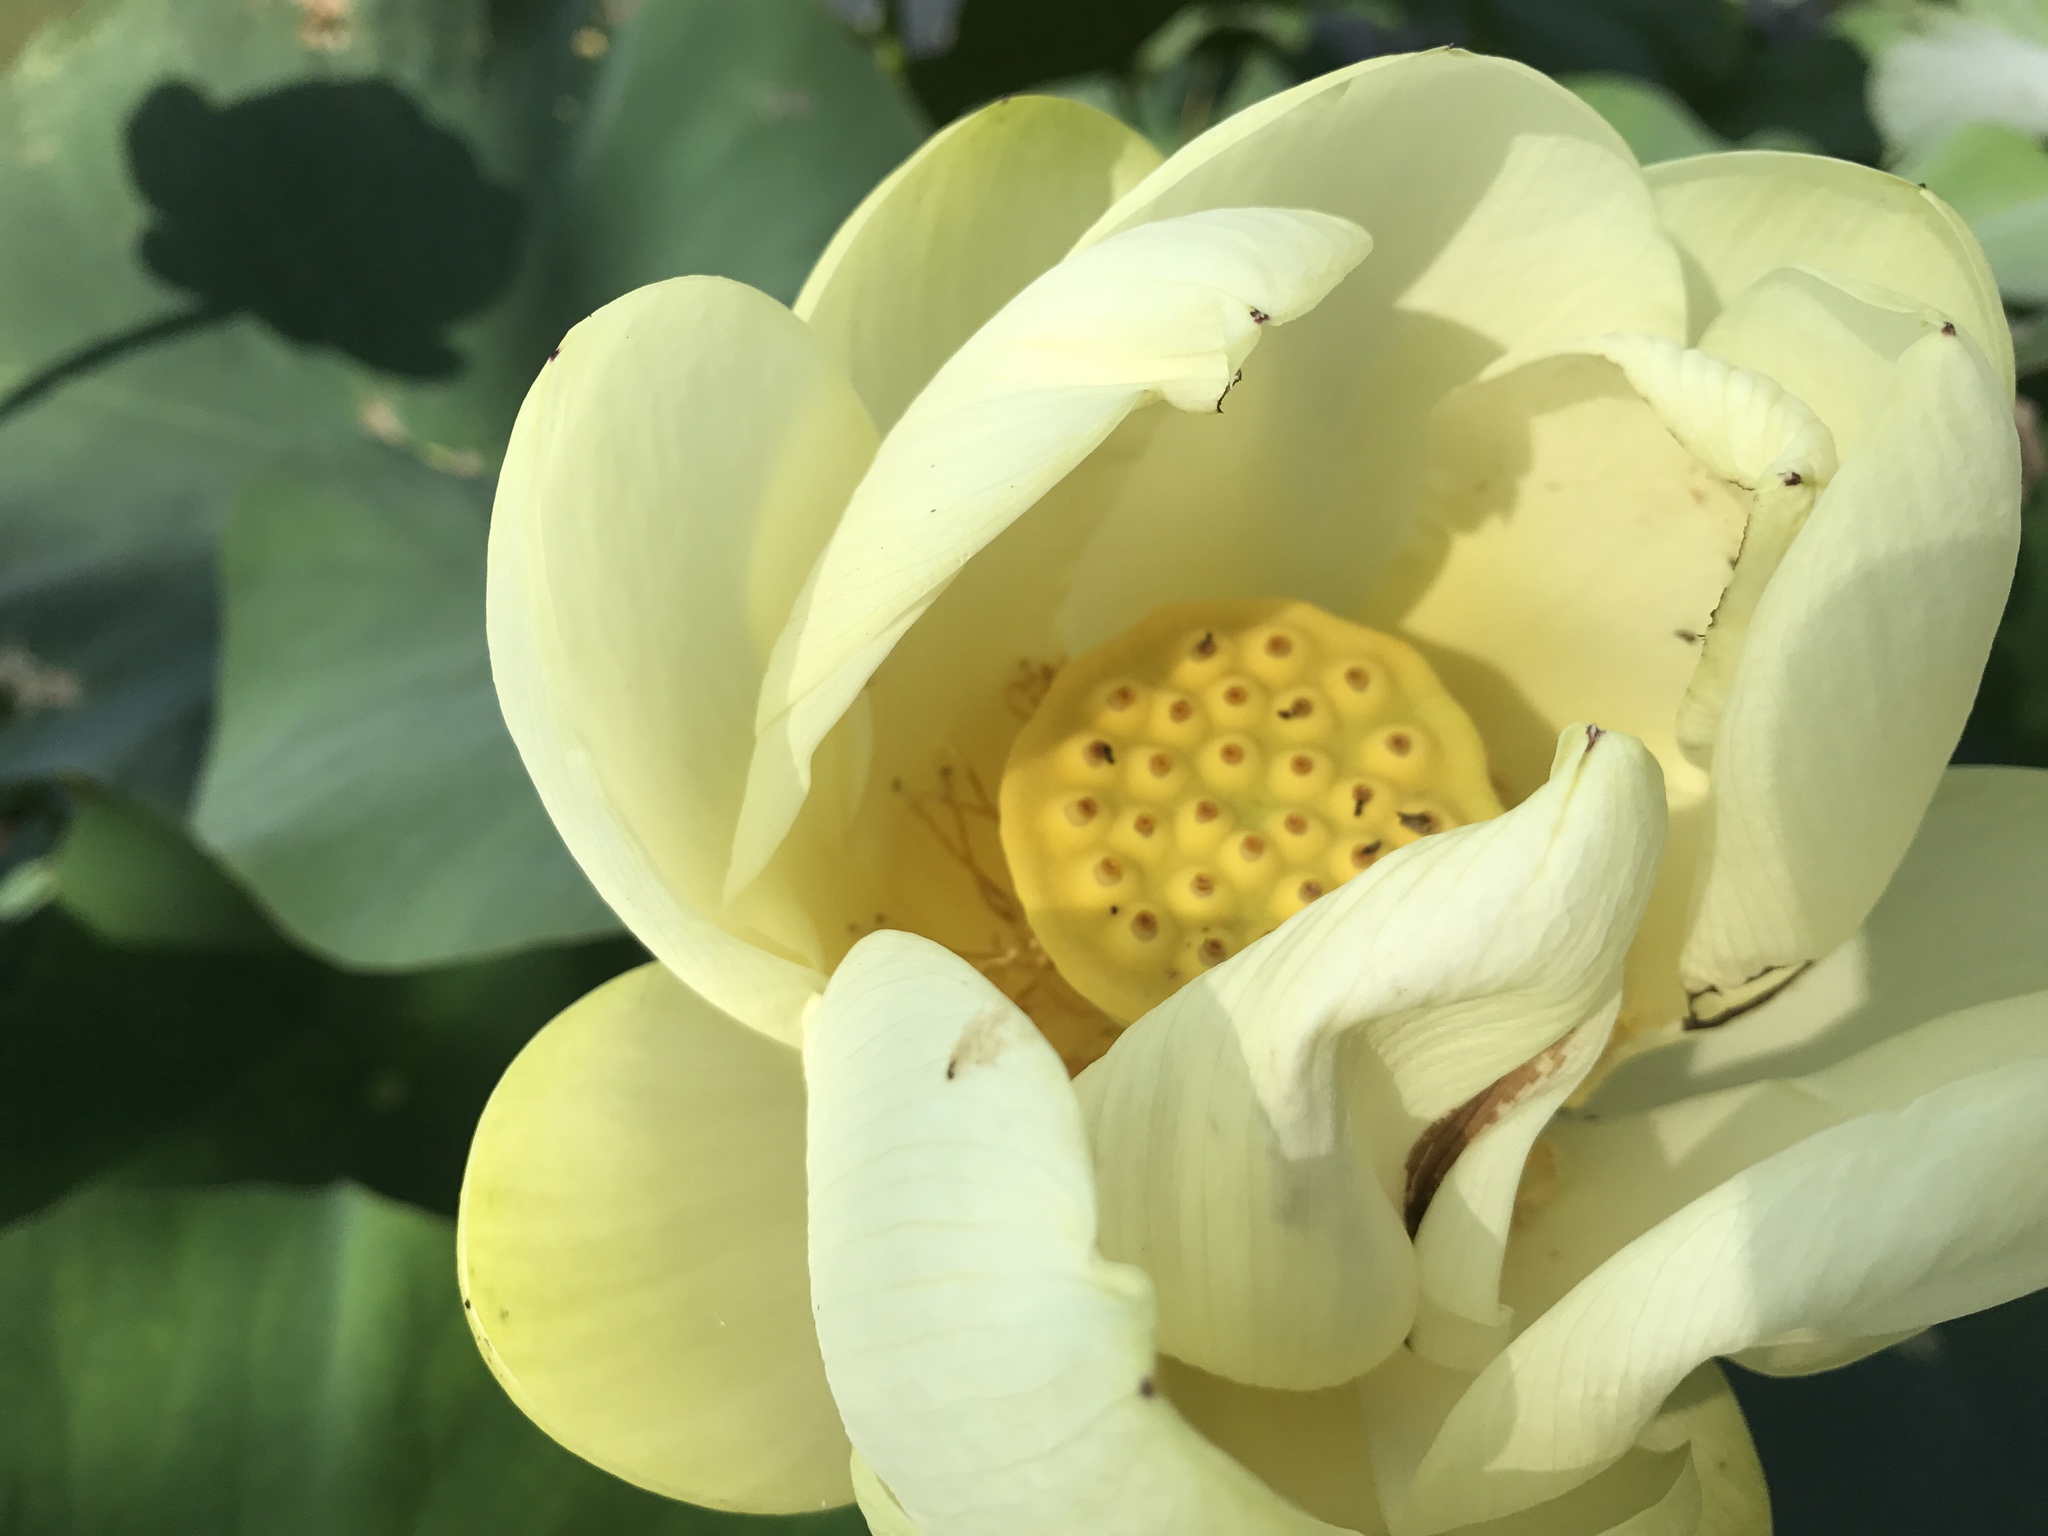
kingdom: Plantae
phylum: Tracheophyta
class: Magnoliopsida
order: Proteales
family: Nelumbonaceae
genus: Nelumbo
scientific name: Nelumbo lutea
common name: American lotus
